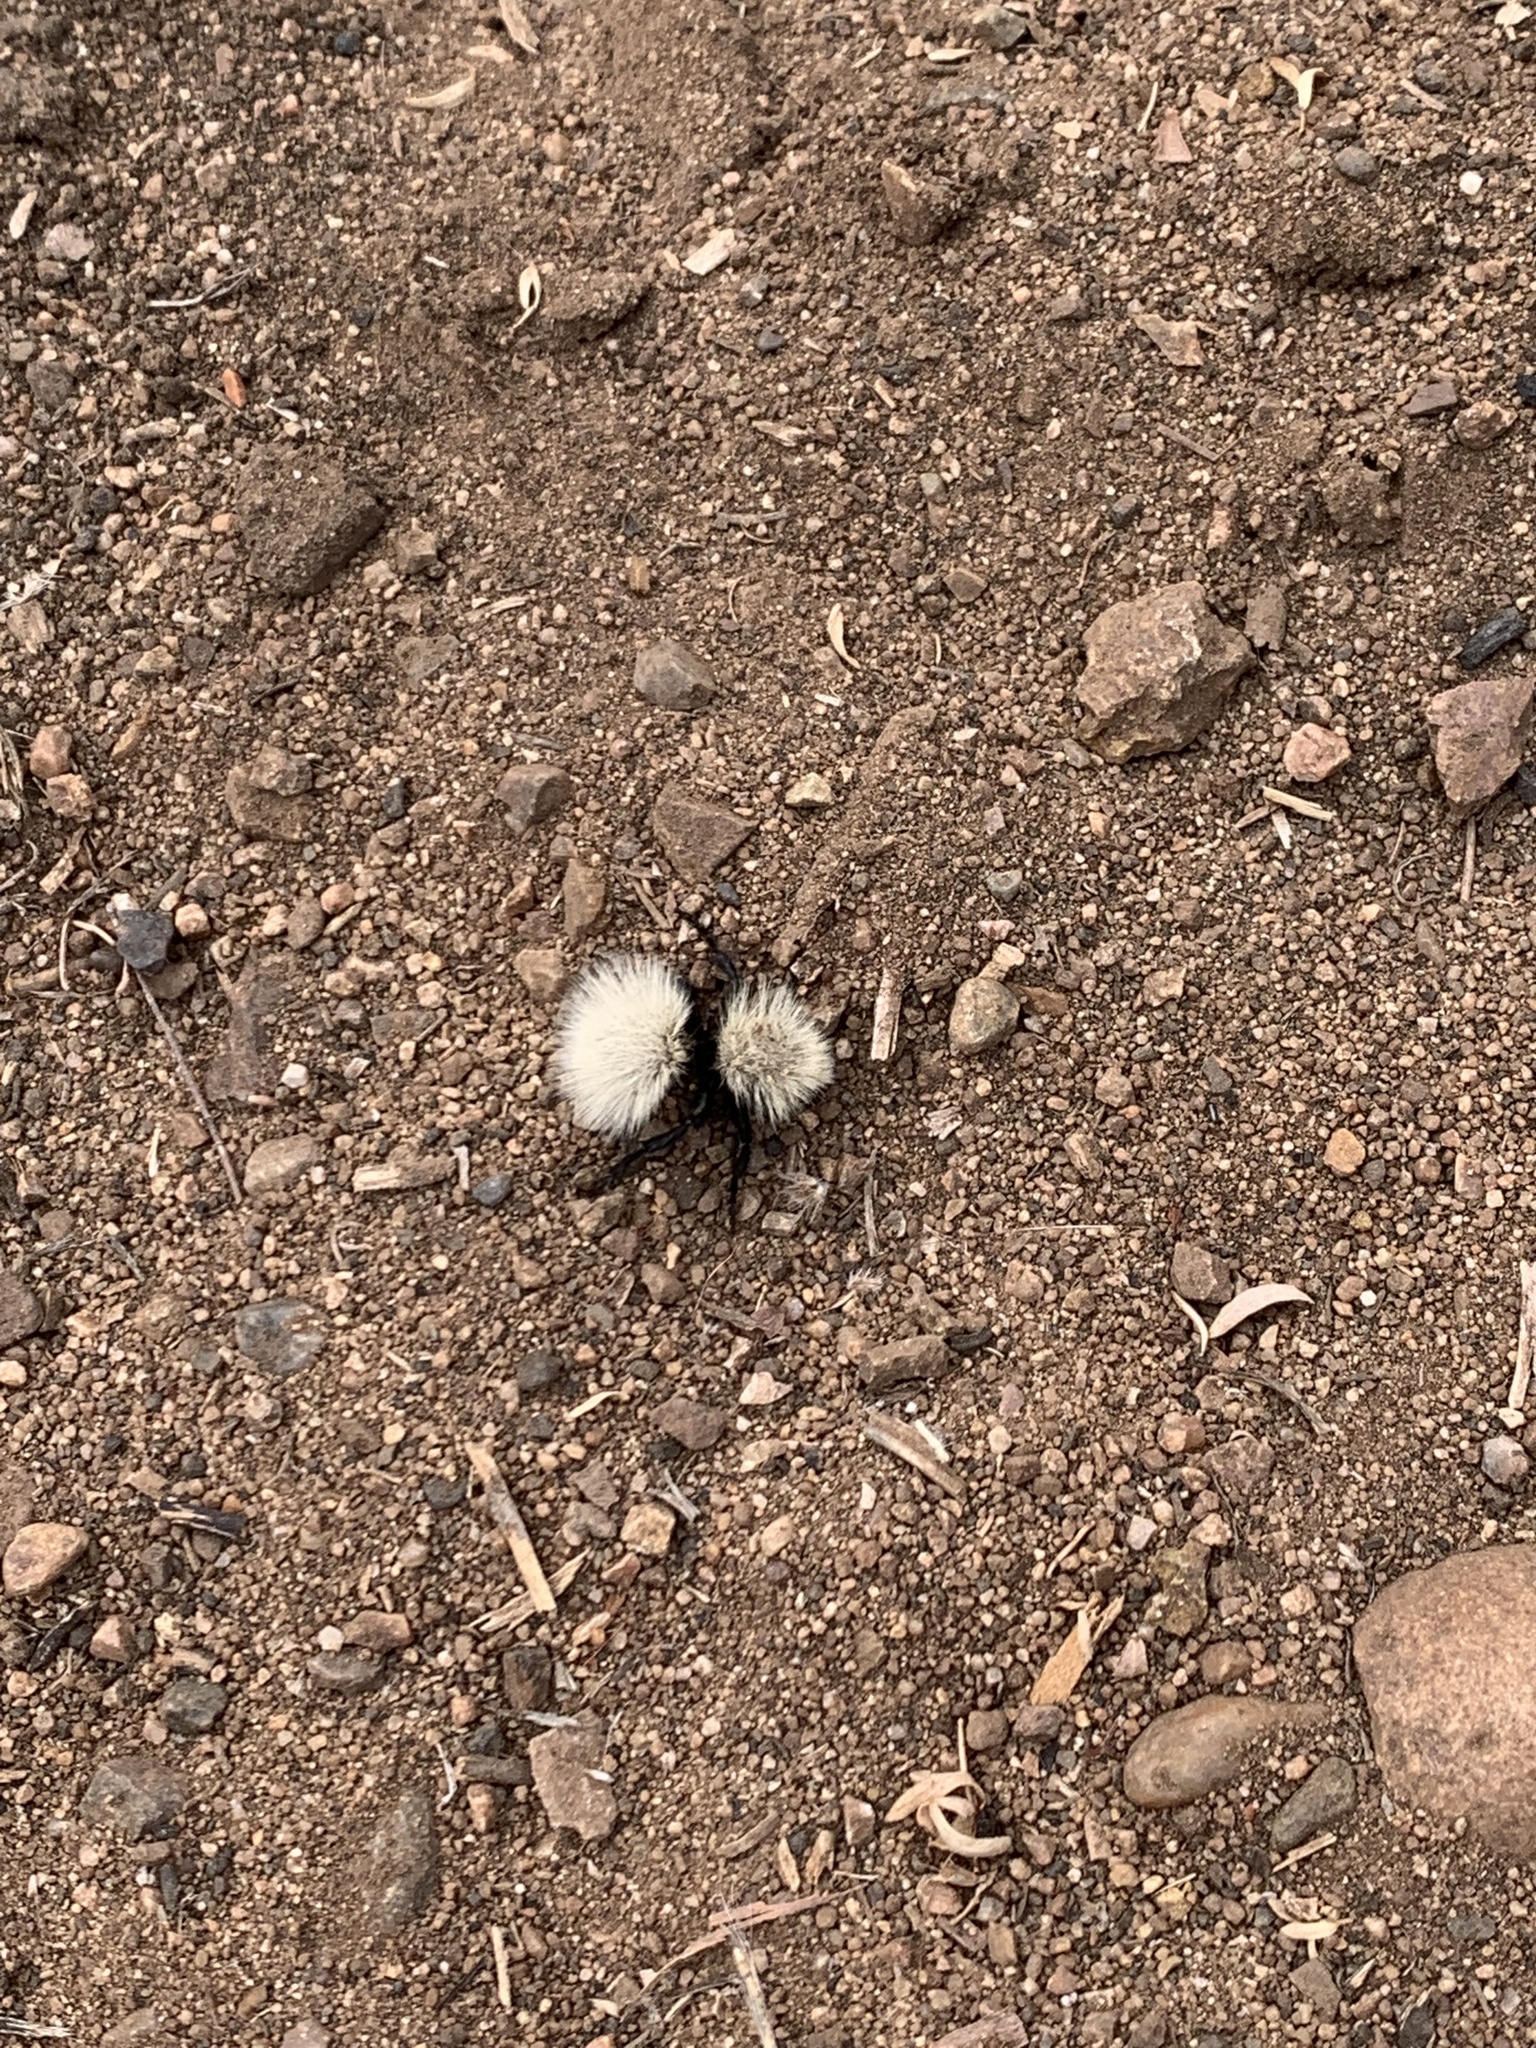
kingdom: Animalia
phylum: Arthropoda
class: Insecta
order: Hymenoptera
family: Mutillidae
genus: Dasymutilla
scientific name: Dasymutilla
